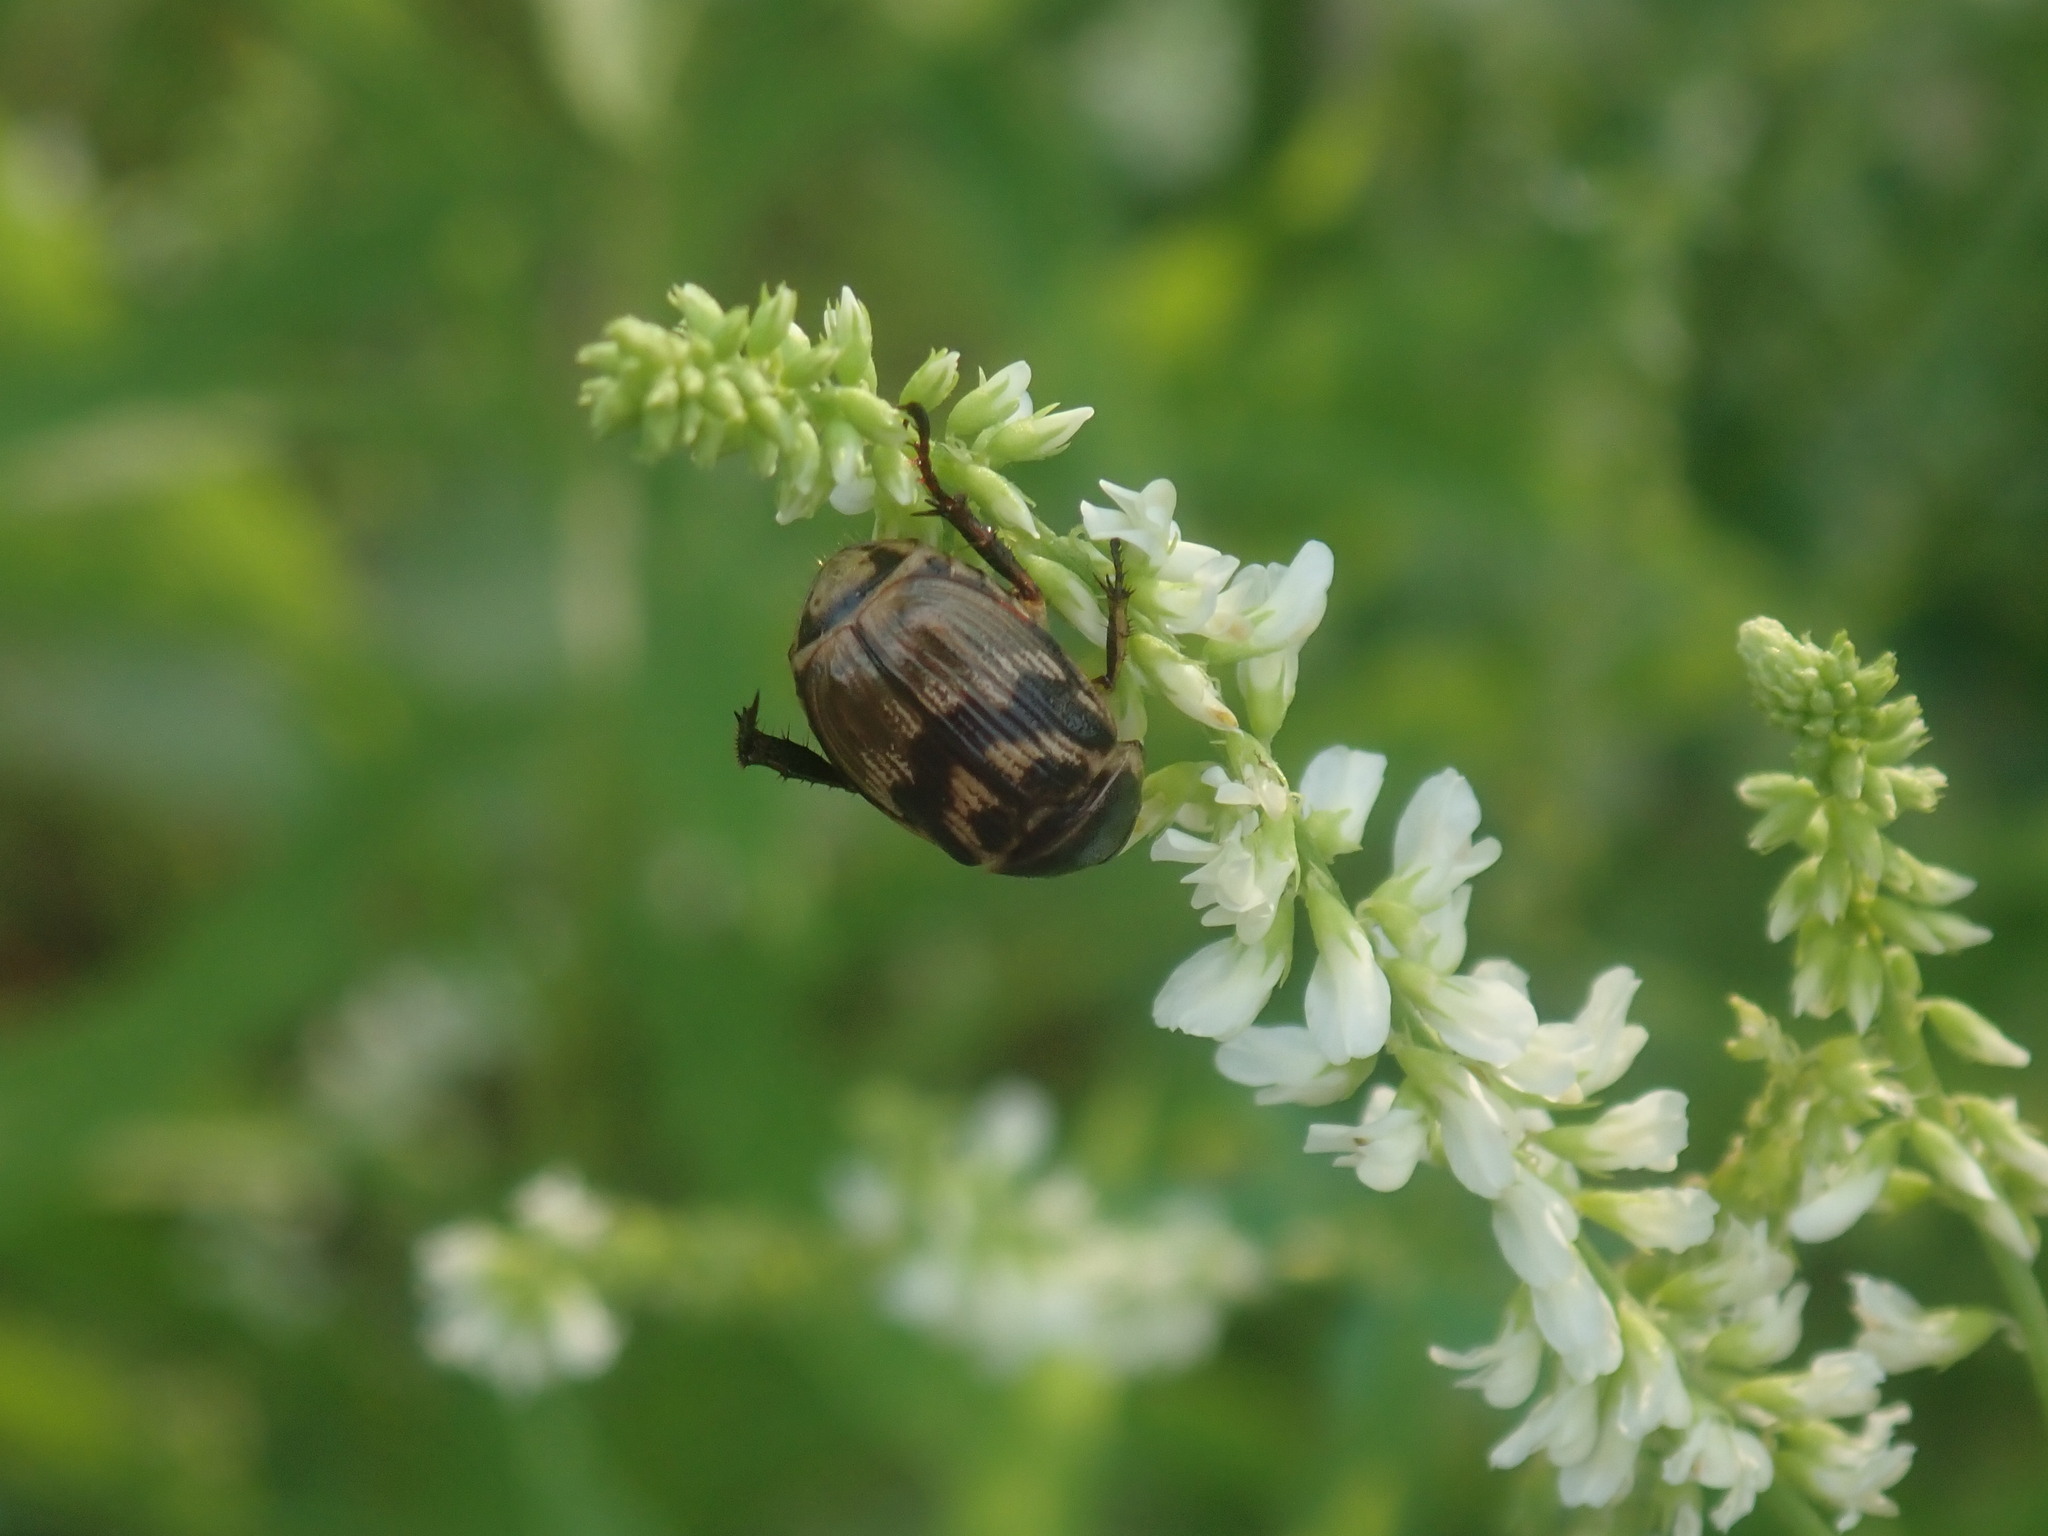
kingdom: Animalia
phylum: Arthropoda
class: Insecta
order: Coleoptera
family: Scarabaeidae
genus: Exomala
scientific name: Exomala orientalis
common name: Oriental beetle
